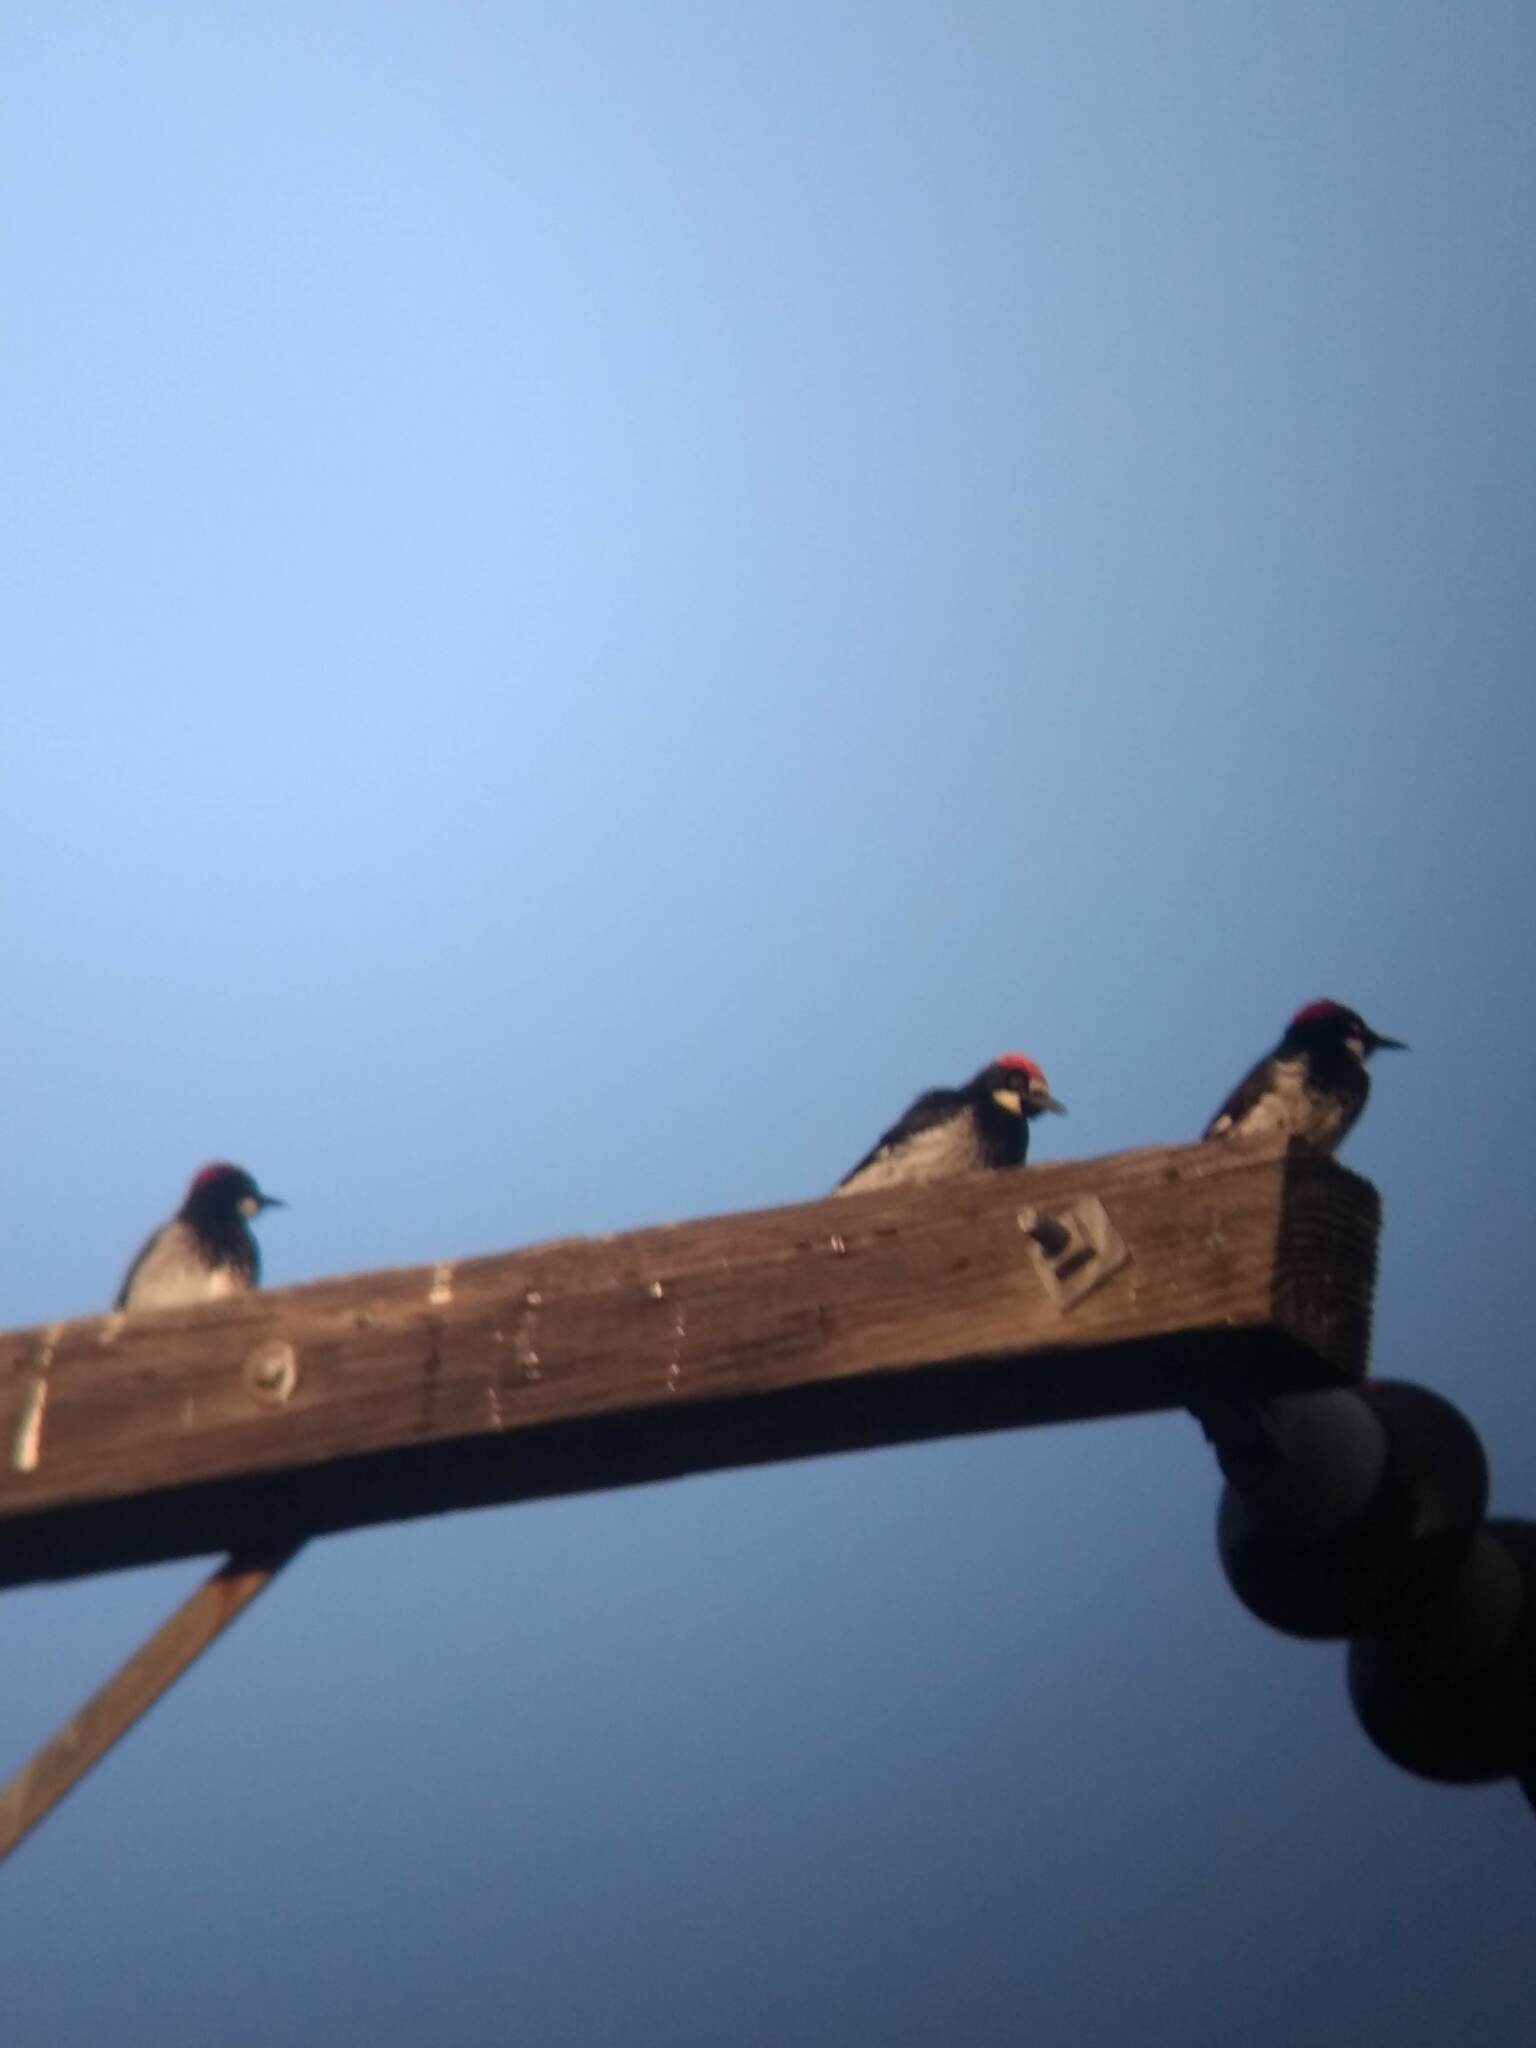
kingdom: Animalia
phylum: Chordata
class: Aves
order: Piciformes
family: Picidae
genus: Melanerpes
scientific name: Melanerpes formicivorus
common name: Acorn woodpecker
